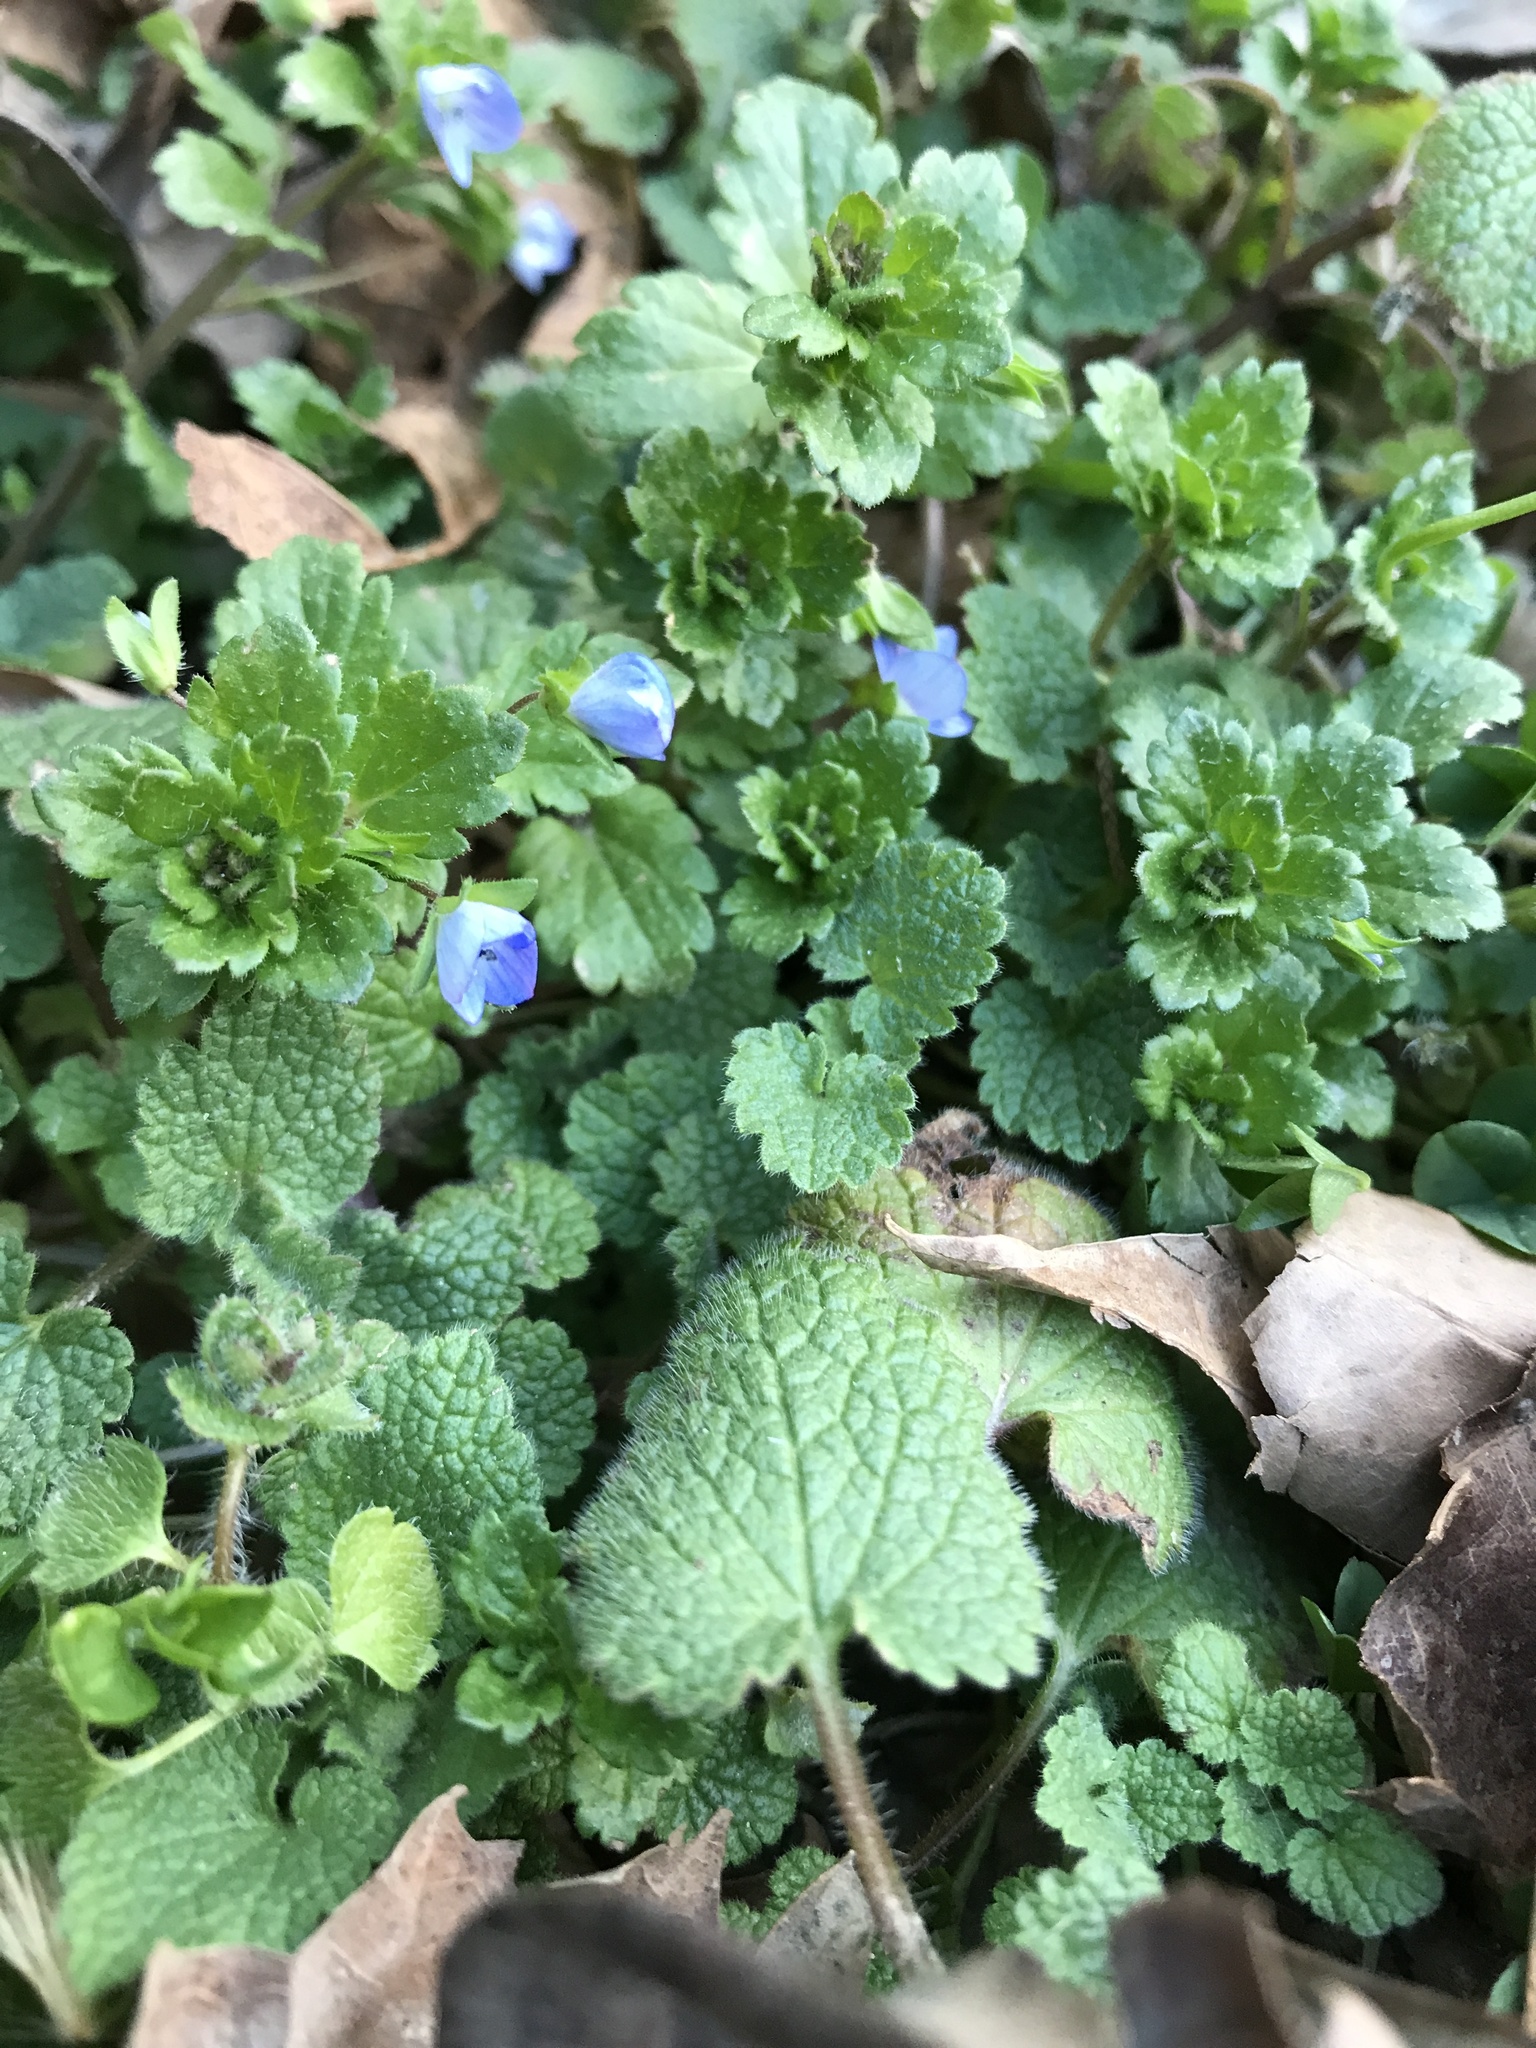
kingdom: Plantae
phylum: Tracheophyta
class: Magnoliopsida
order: Lamiales
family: Plantaginaceae
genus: Veronica
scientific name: Veronica persica
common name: Common field-speedwell
